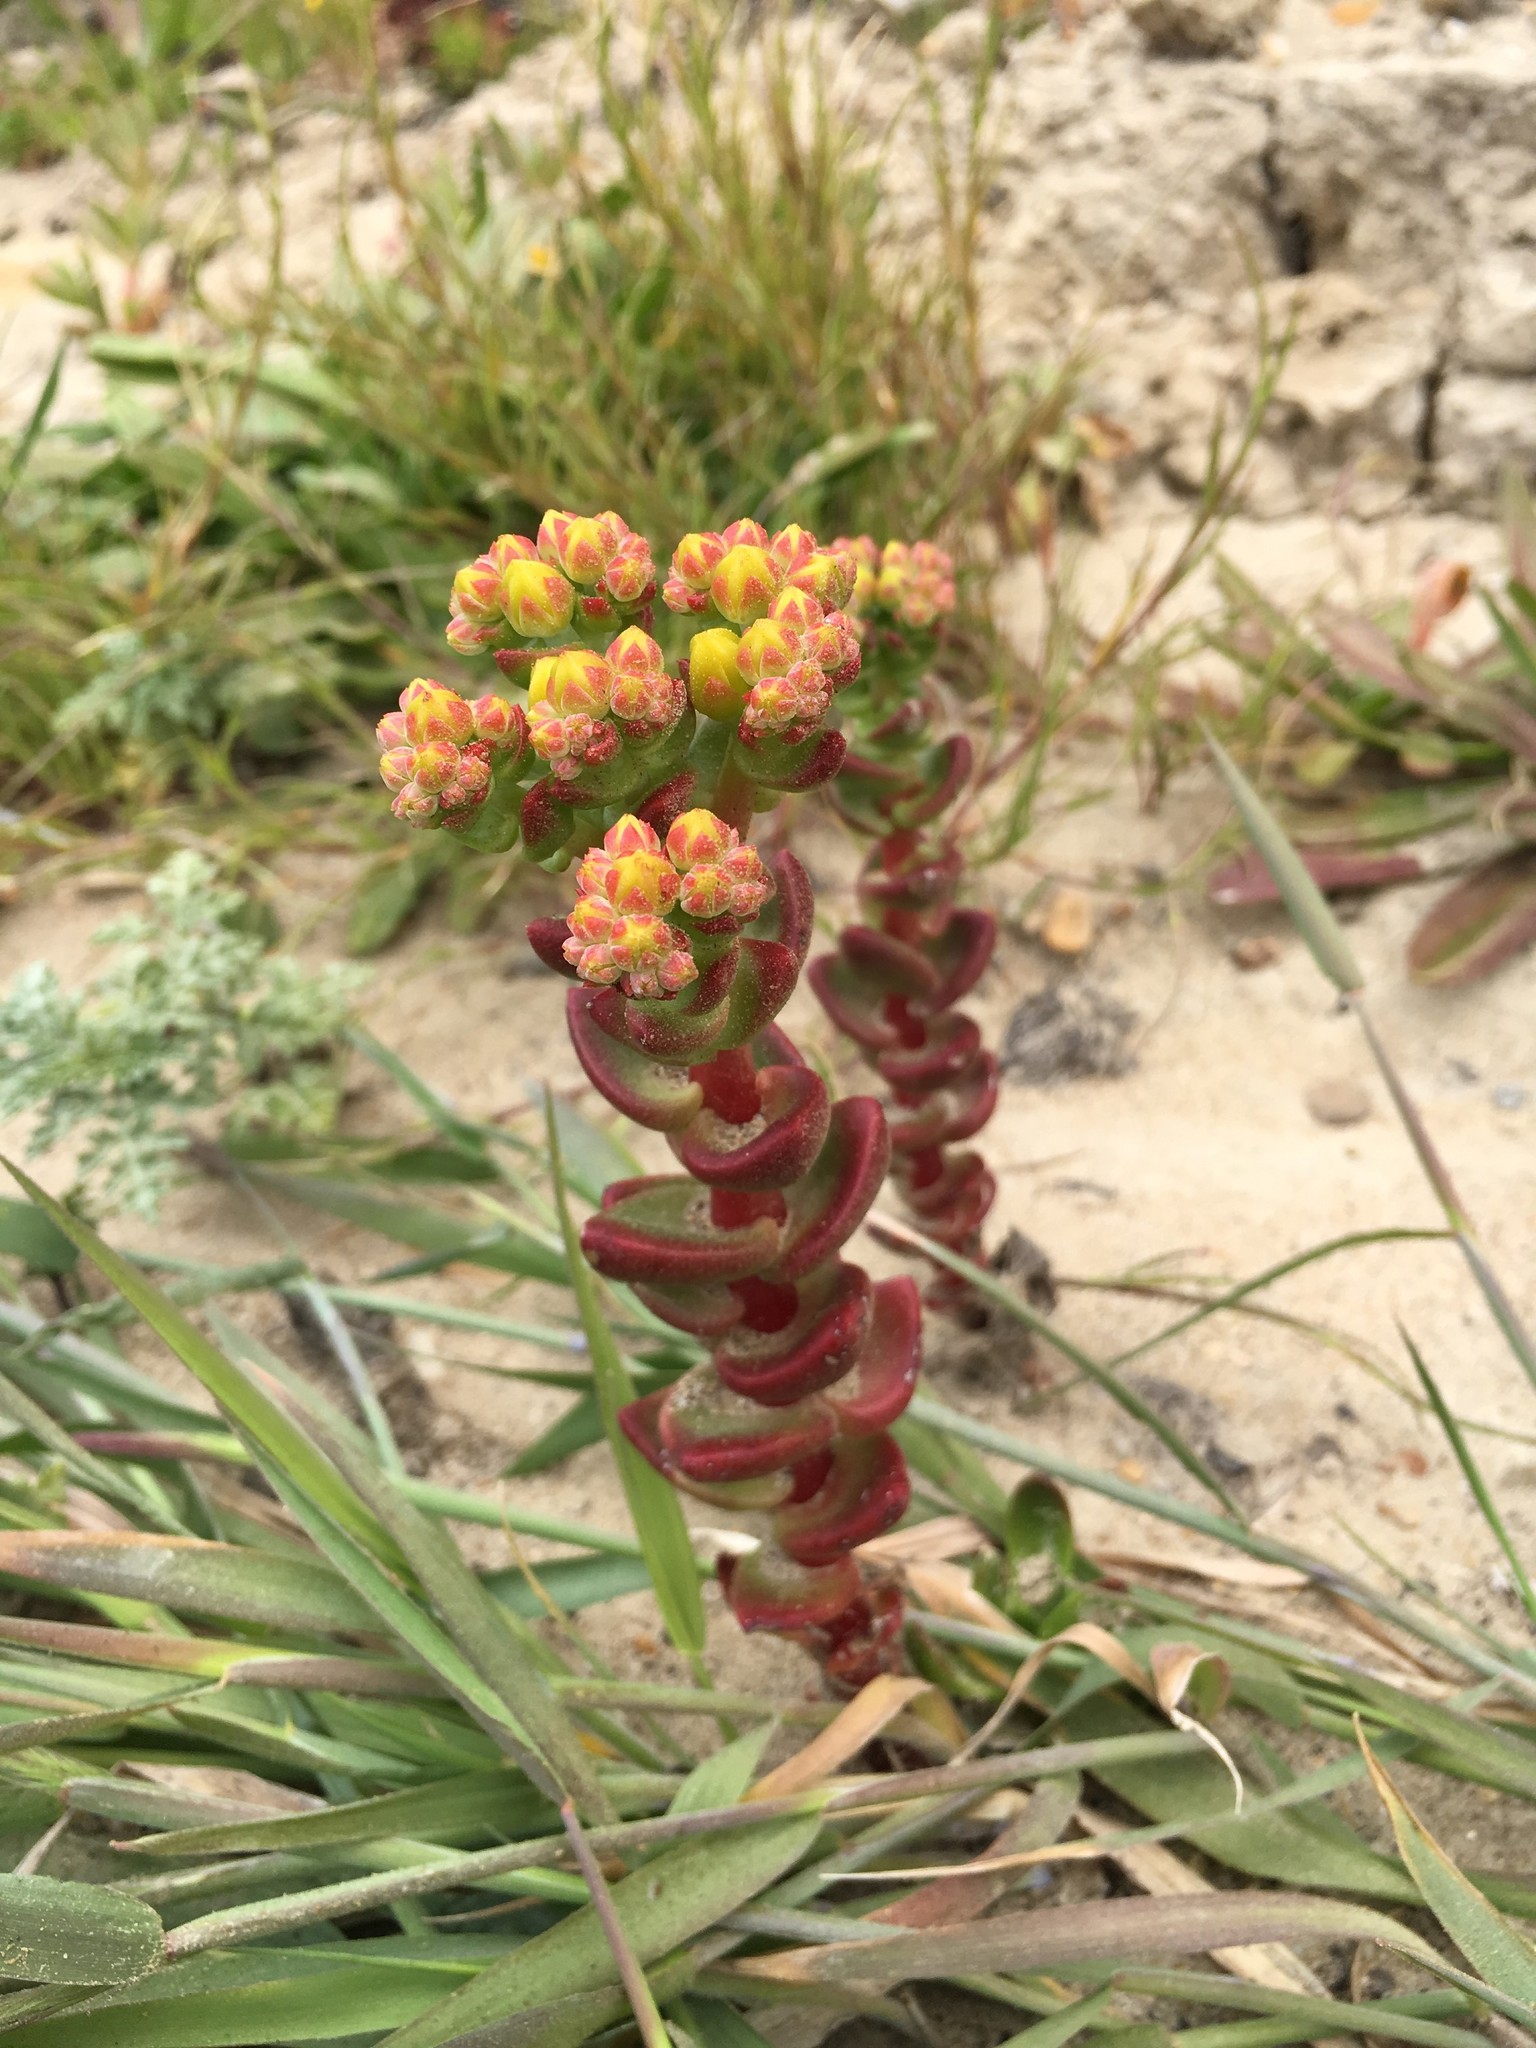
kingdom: Plantae
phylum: Tracheophyta
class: Magnoliopsida
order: Saxifragales
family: Crassulaceae
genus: Dudleya
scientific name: Dudleya caespitosa
